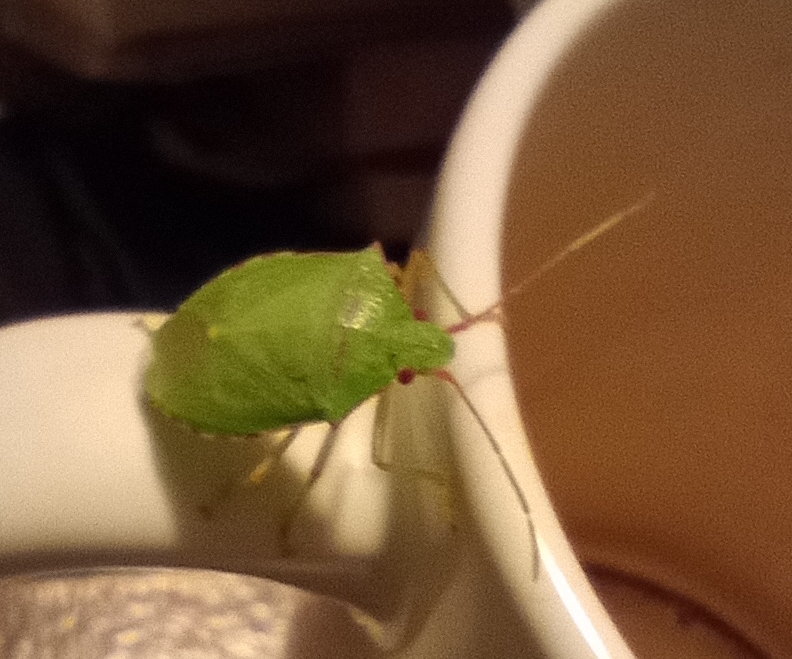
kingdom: Animalia
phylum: Arthropoda
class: Insecta
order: Hemiptera
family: Pentatomidae
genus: Chlorocoris
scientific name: Chlorocoris
